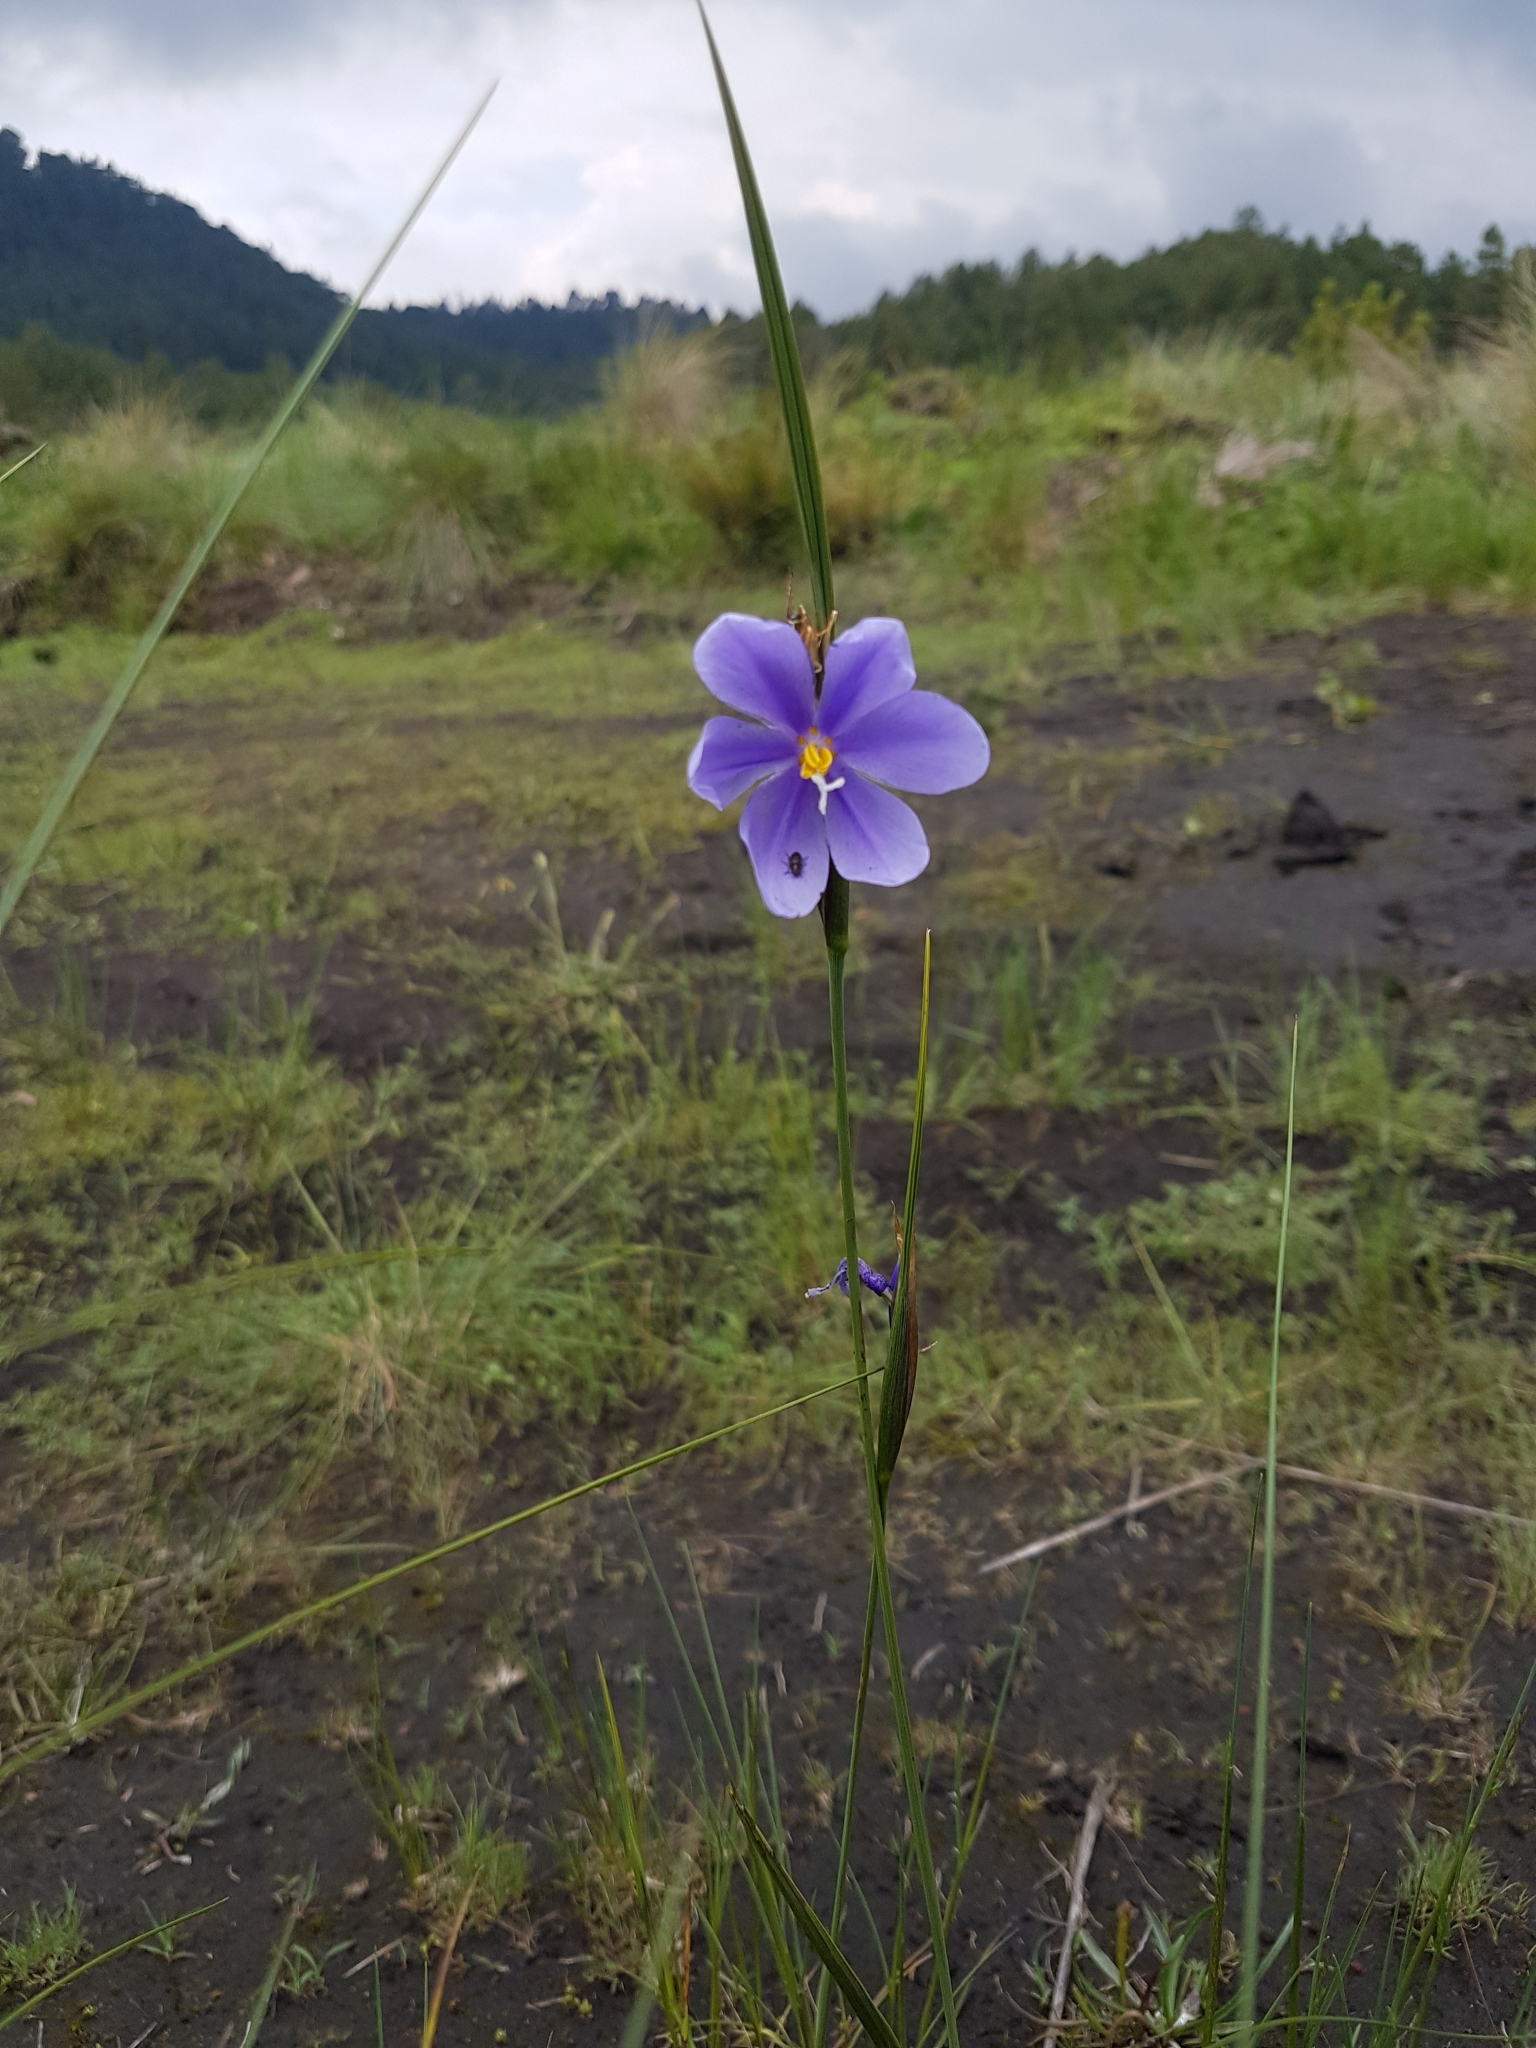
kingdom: Plantae
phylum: Tracheophyta
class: Liliopsida
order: Asparagales
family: Iridaceae
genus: Tigridia
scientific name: Tigridia longispatha
